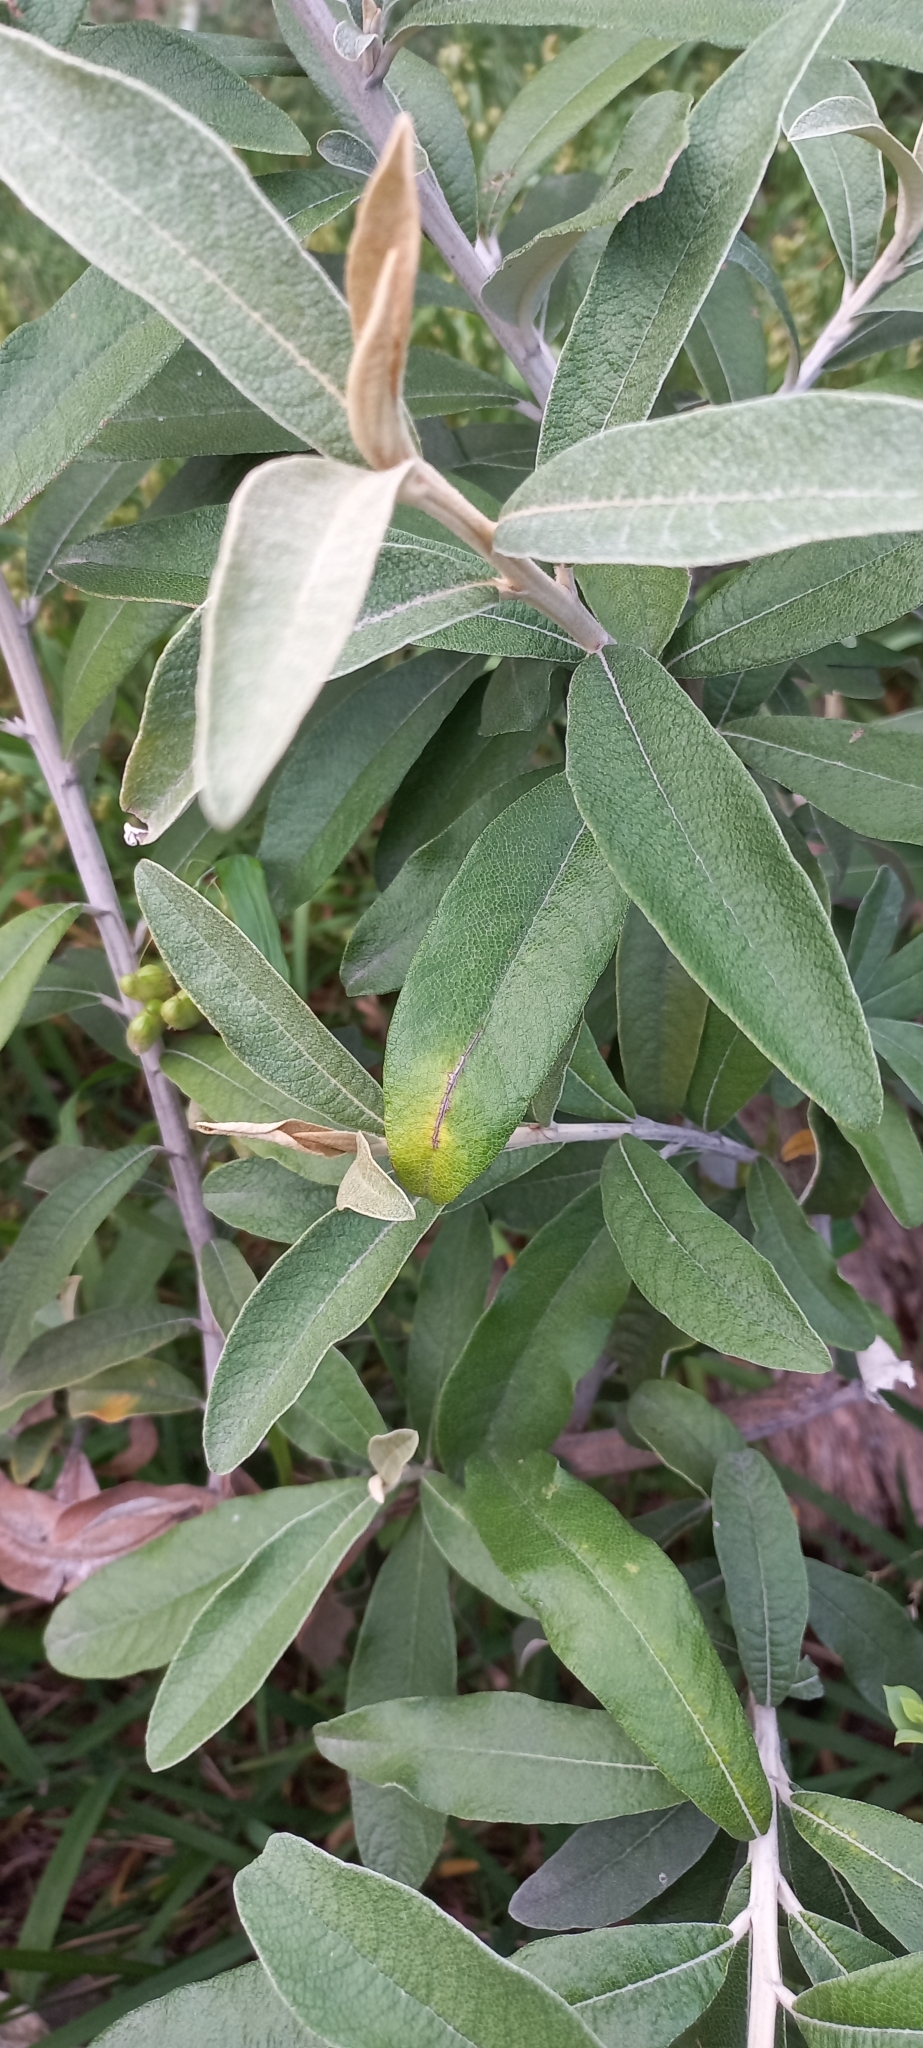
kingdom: Plantae
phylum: Tracheophyta
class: Magnoliopsida
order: Asterales
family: Asteraceae
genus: Tarchonanthus
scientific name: Tarchonanthus littoralis
